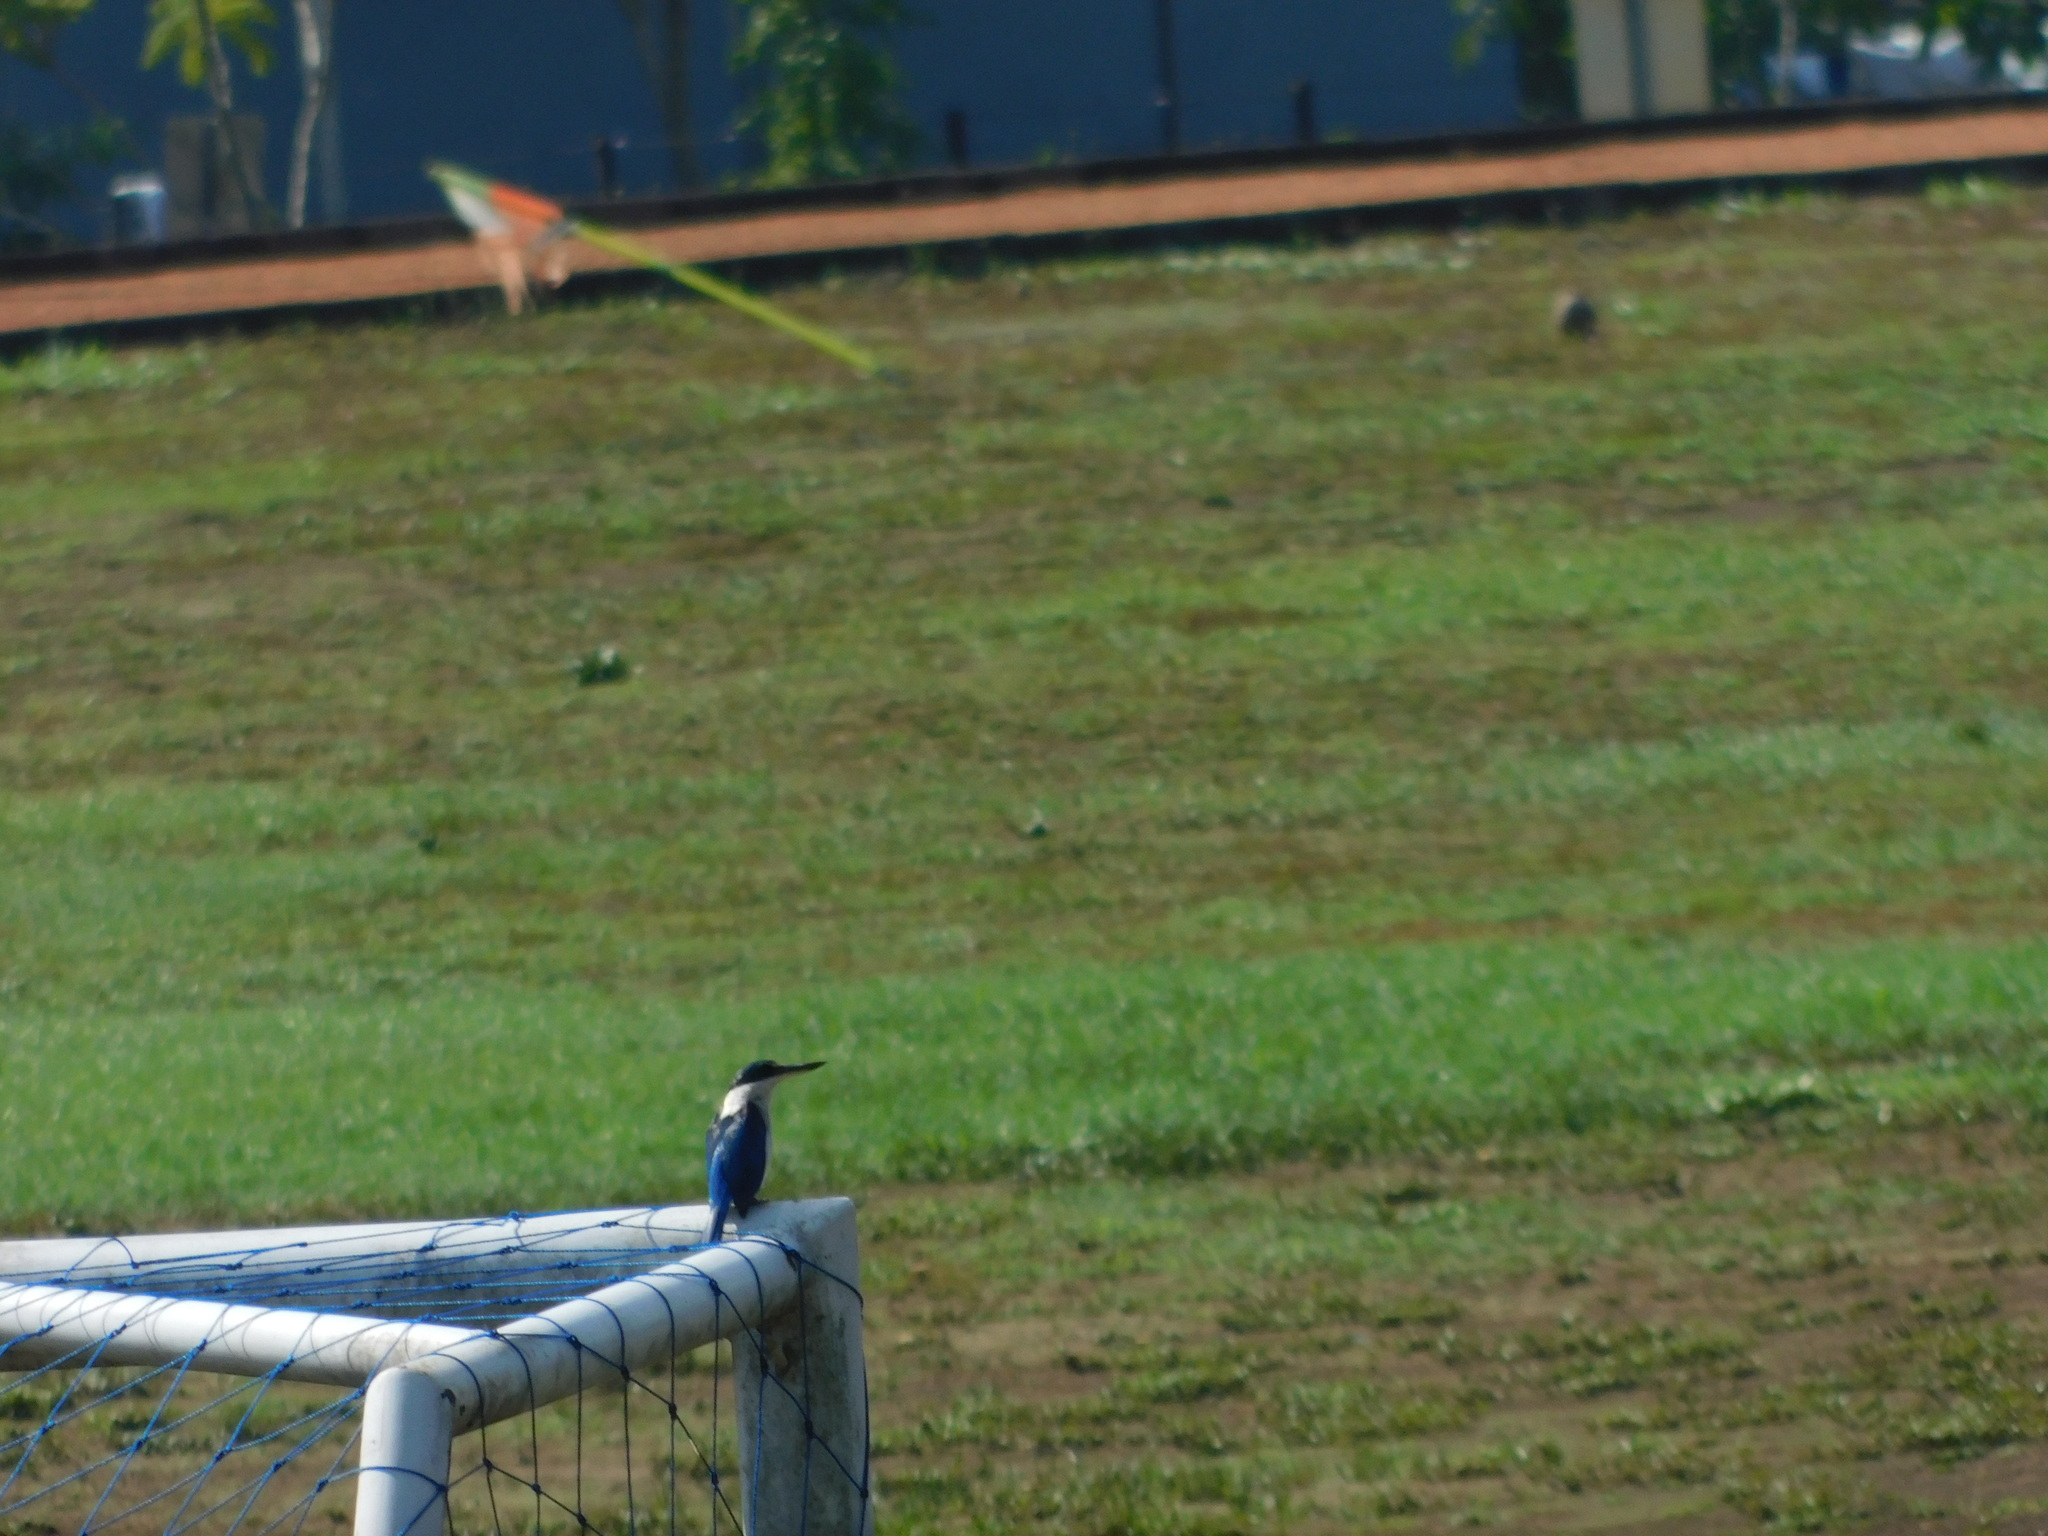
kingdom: Animalia
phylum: Chordata
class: Aves
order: Coraciiformes
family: Alcedinidae
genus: Todiramphus
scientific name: Todiramphus chloris
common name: Collared kingfisher
